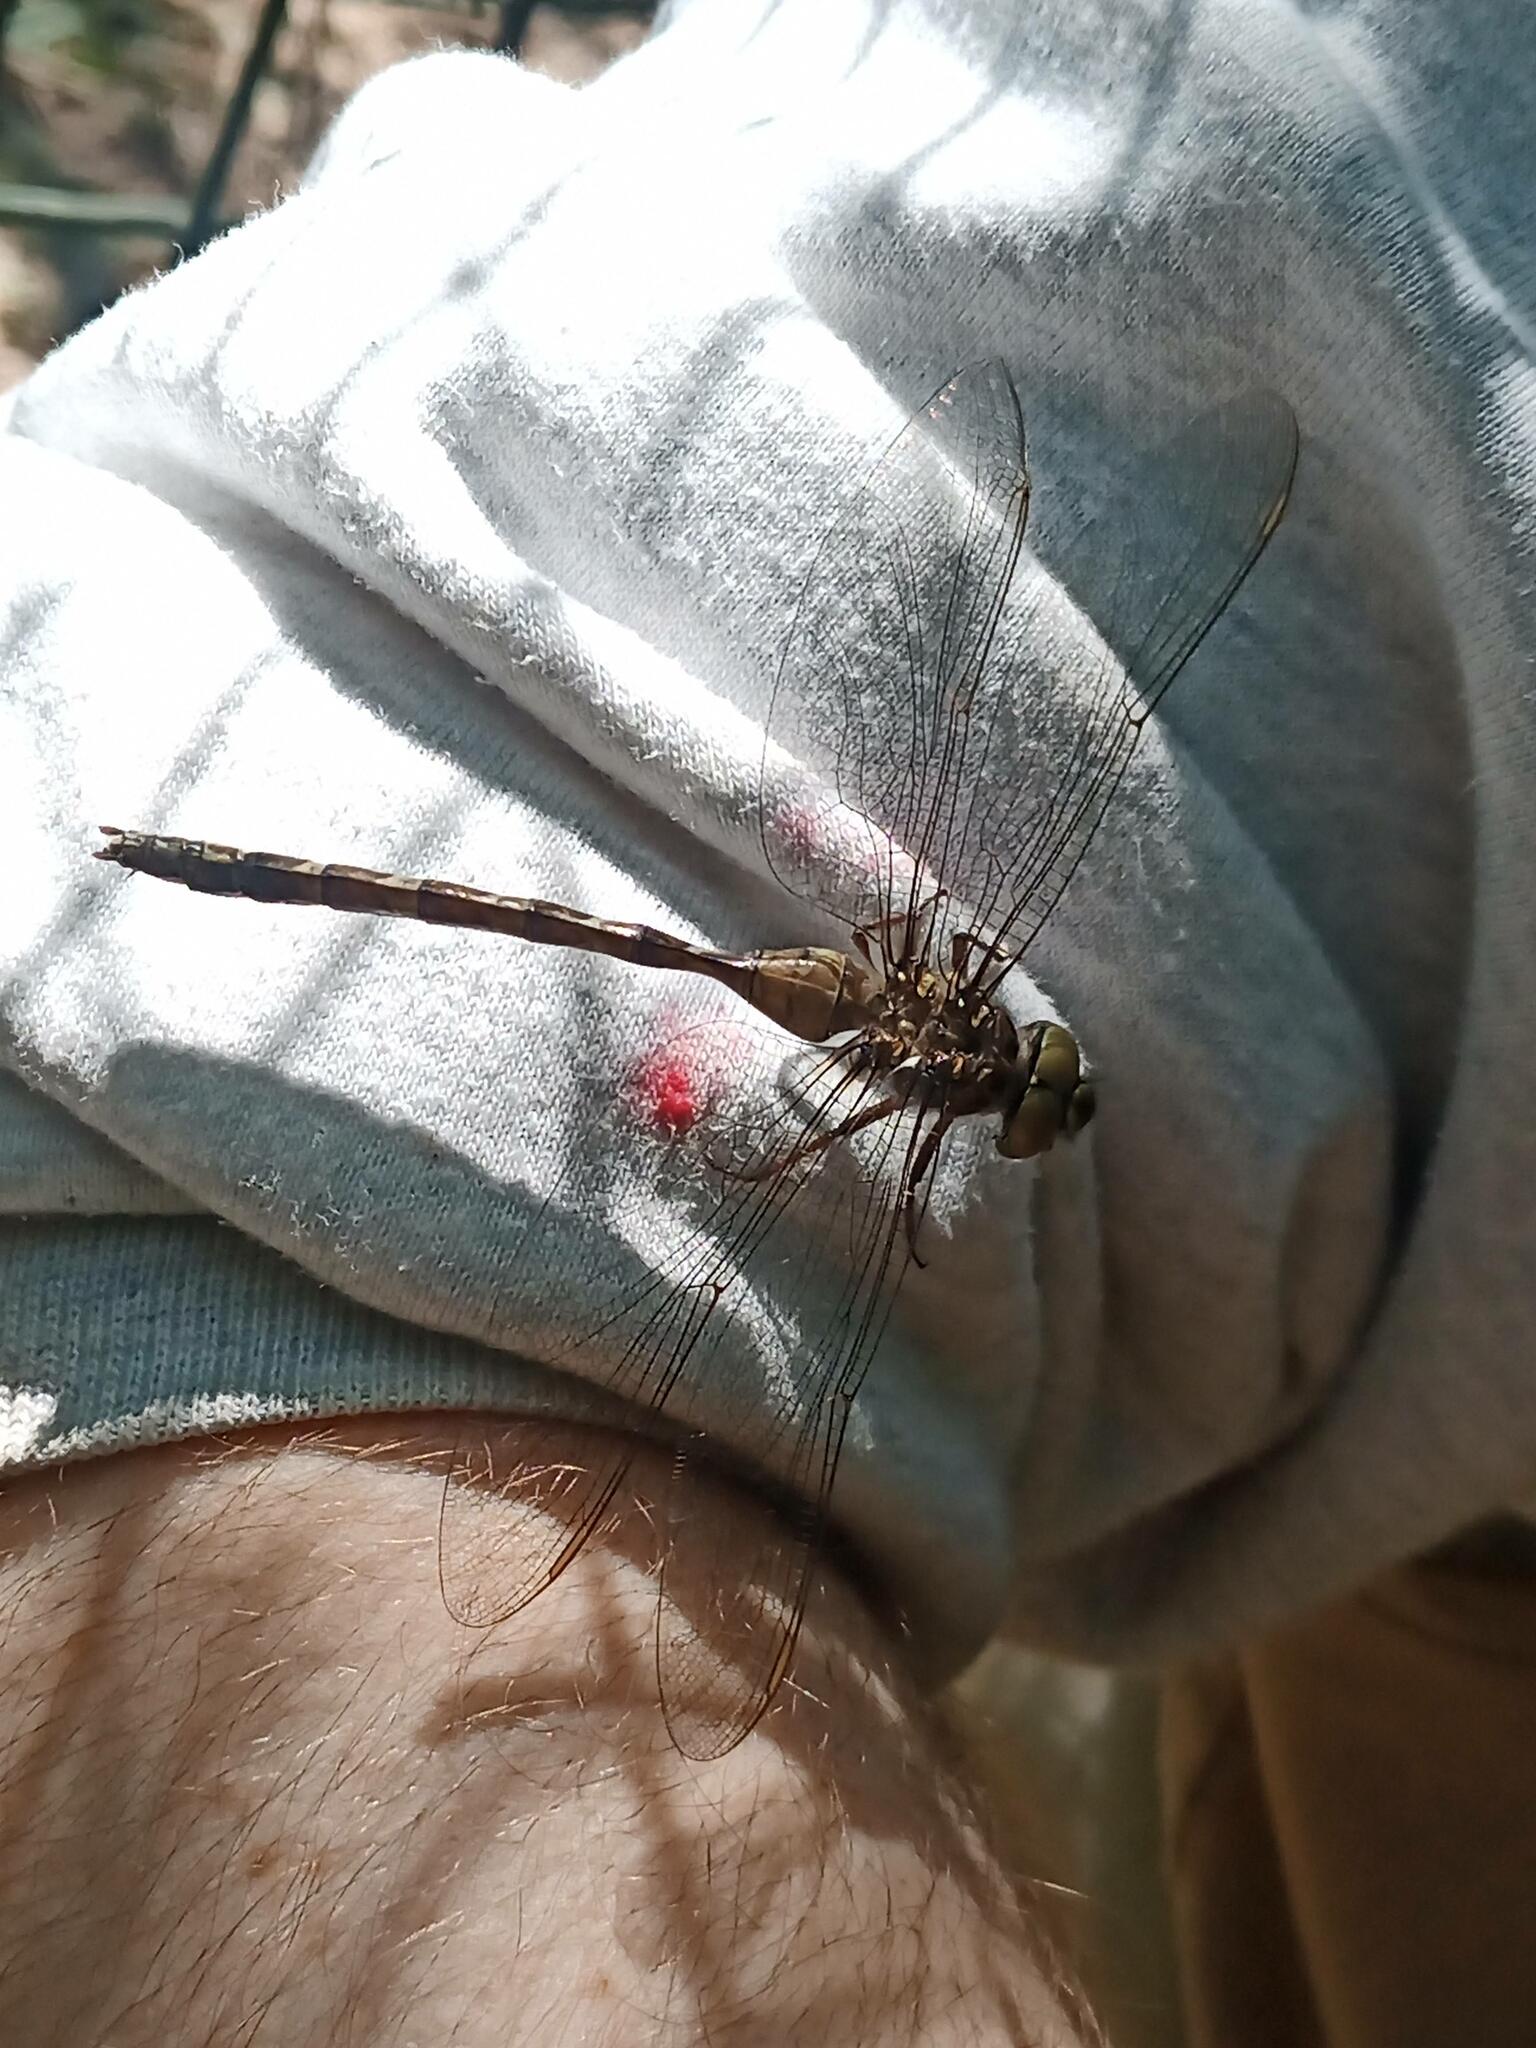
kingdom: Animalia
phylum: Arthropoda
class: Insecta
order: Odonata
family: Aeshnidae
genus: Boyeria
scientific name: Boyeria irene
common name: Western spectre
